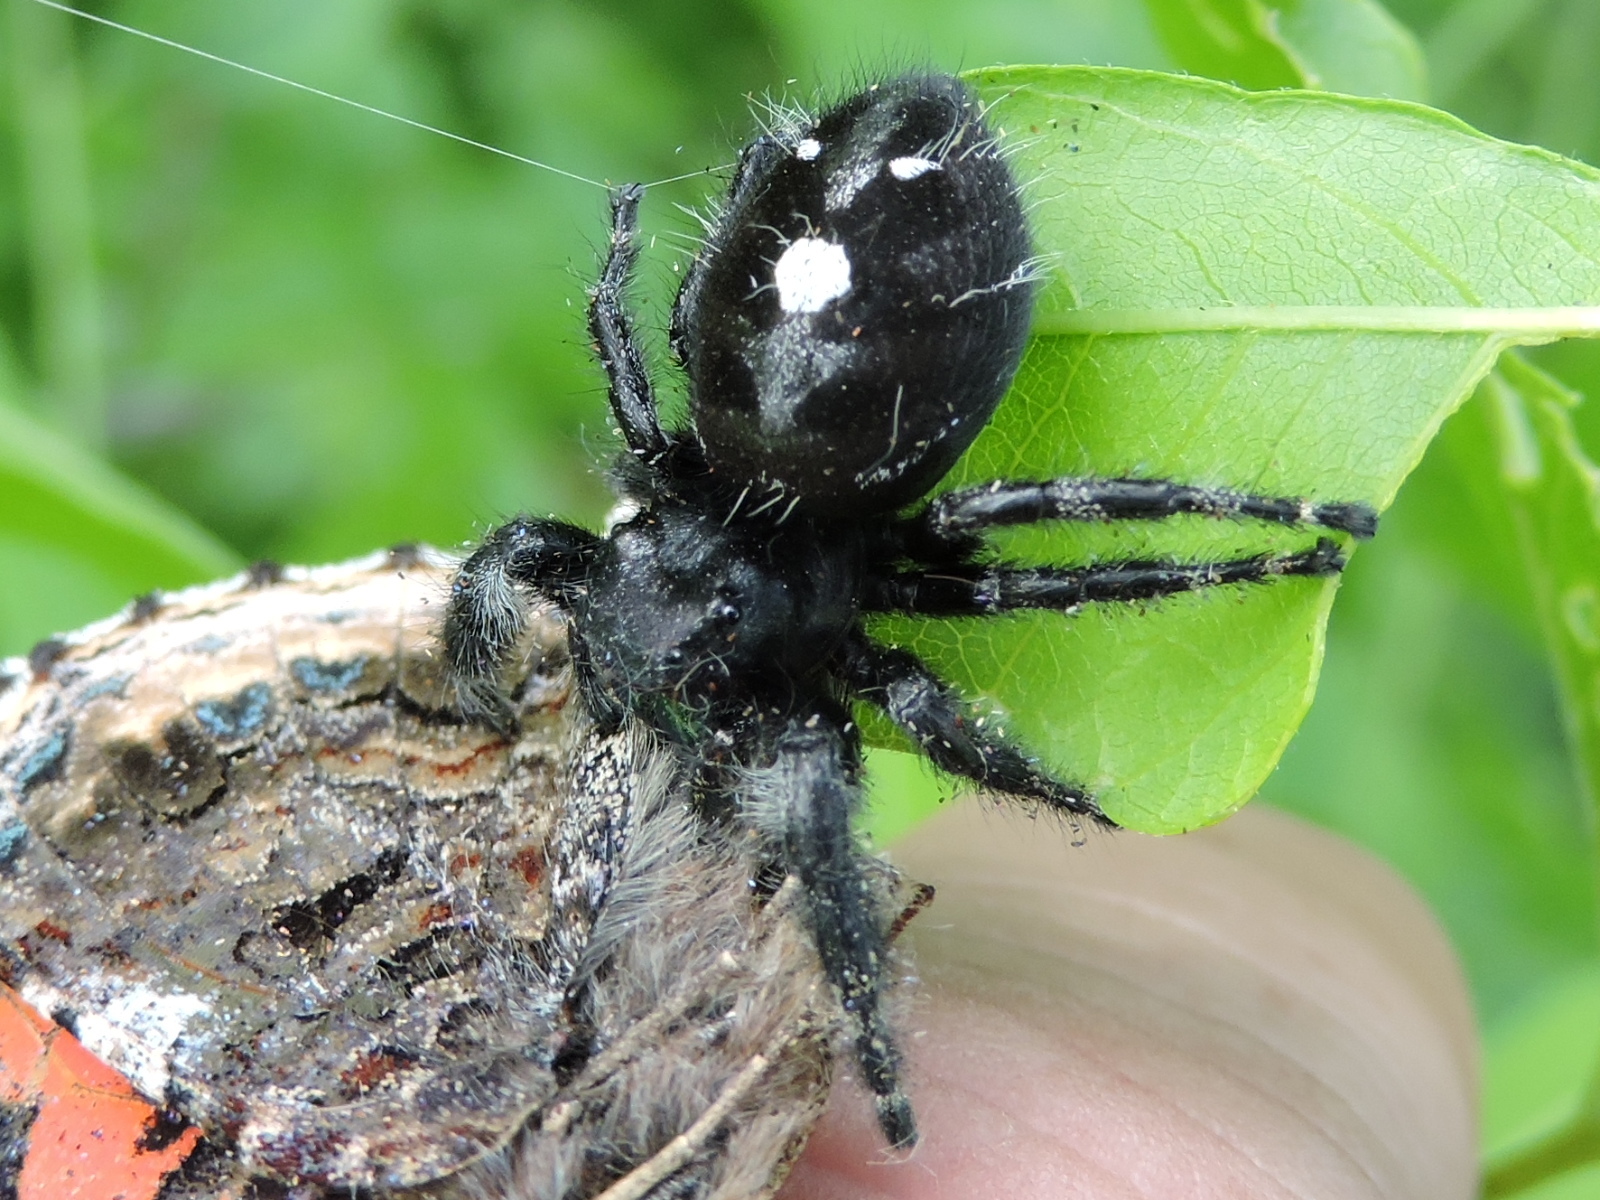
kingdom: Animalia
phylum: Arthropoda
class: Arachnida
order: Araneae
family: Salticidae
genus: Phidippus
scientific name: Phidippus audax
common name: Bold jumper
